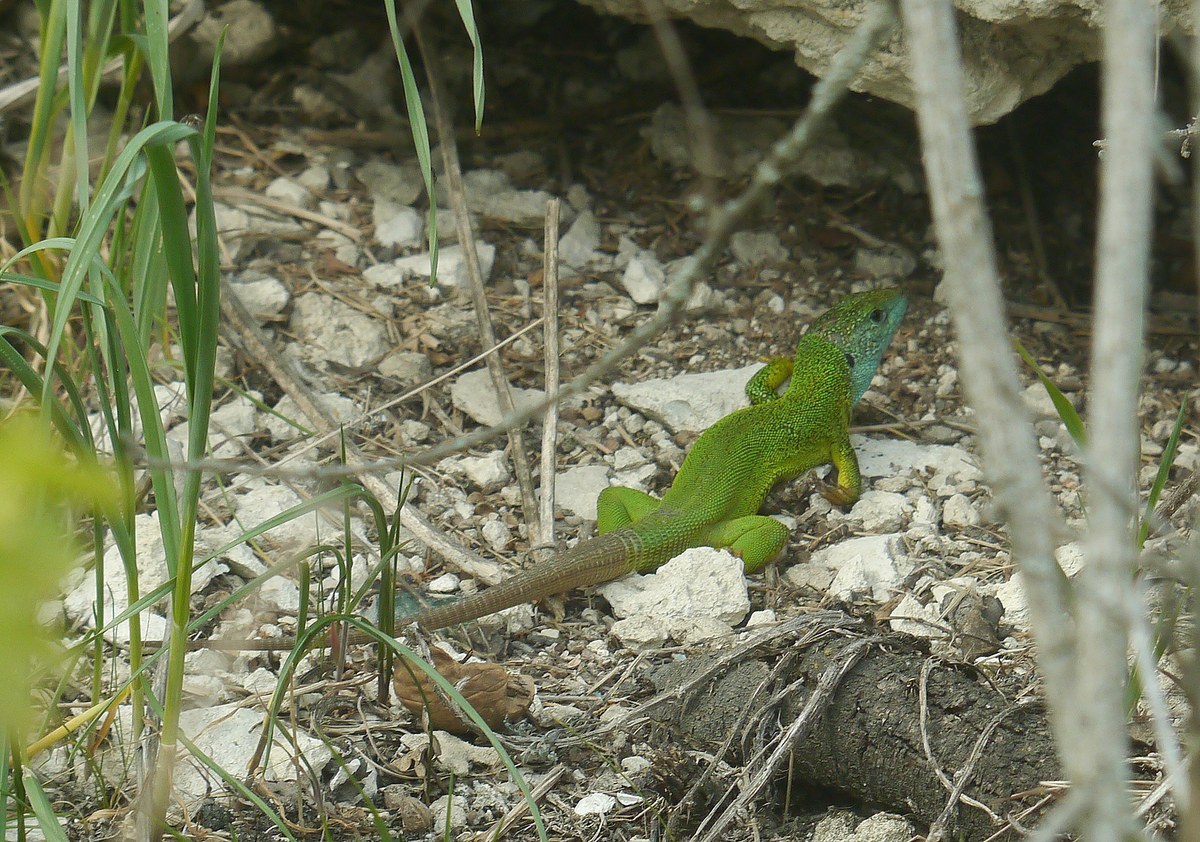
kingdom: Animalia
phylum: Chordata
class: Squamata
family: Lacertidae
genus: Lacerta
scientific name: Lacerta viridis
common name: European green lizard
